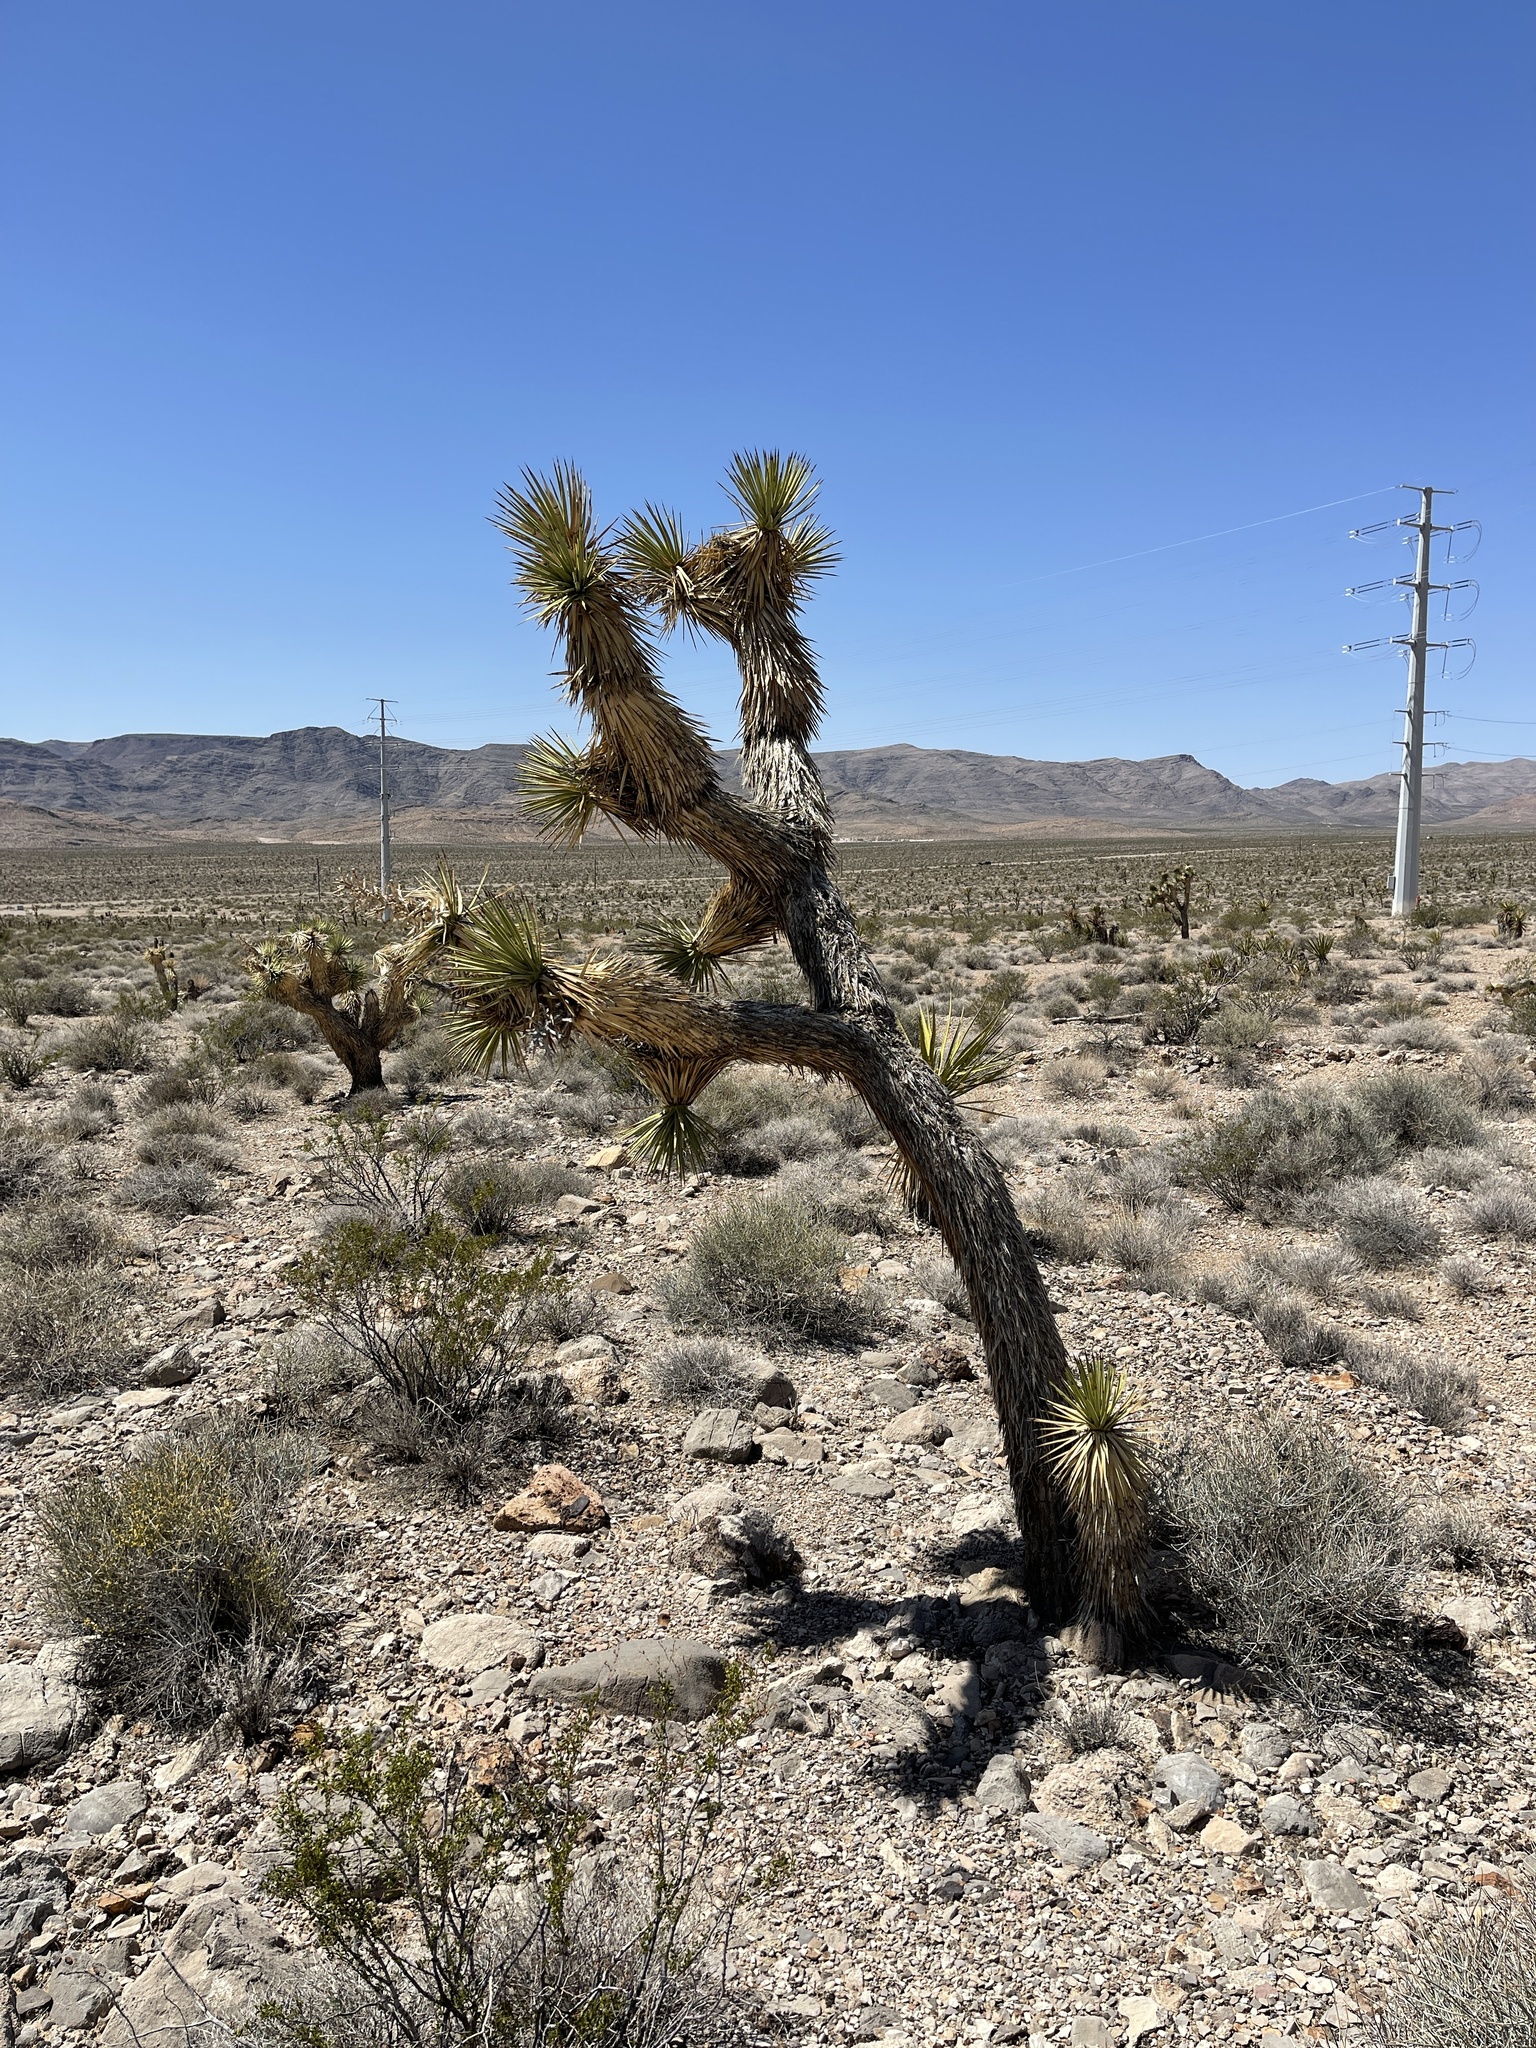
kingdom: Plantae
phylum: Tracheophyta
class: Liliopsida
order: Asparagales
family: Asparagaceae
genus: Yucca
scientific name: Yucca brevifolia
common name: Joshua tree
